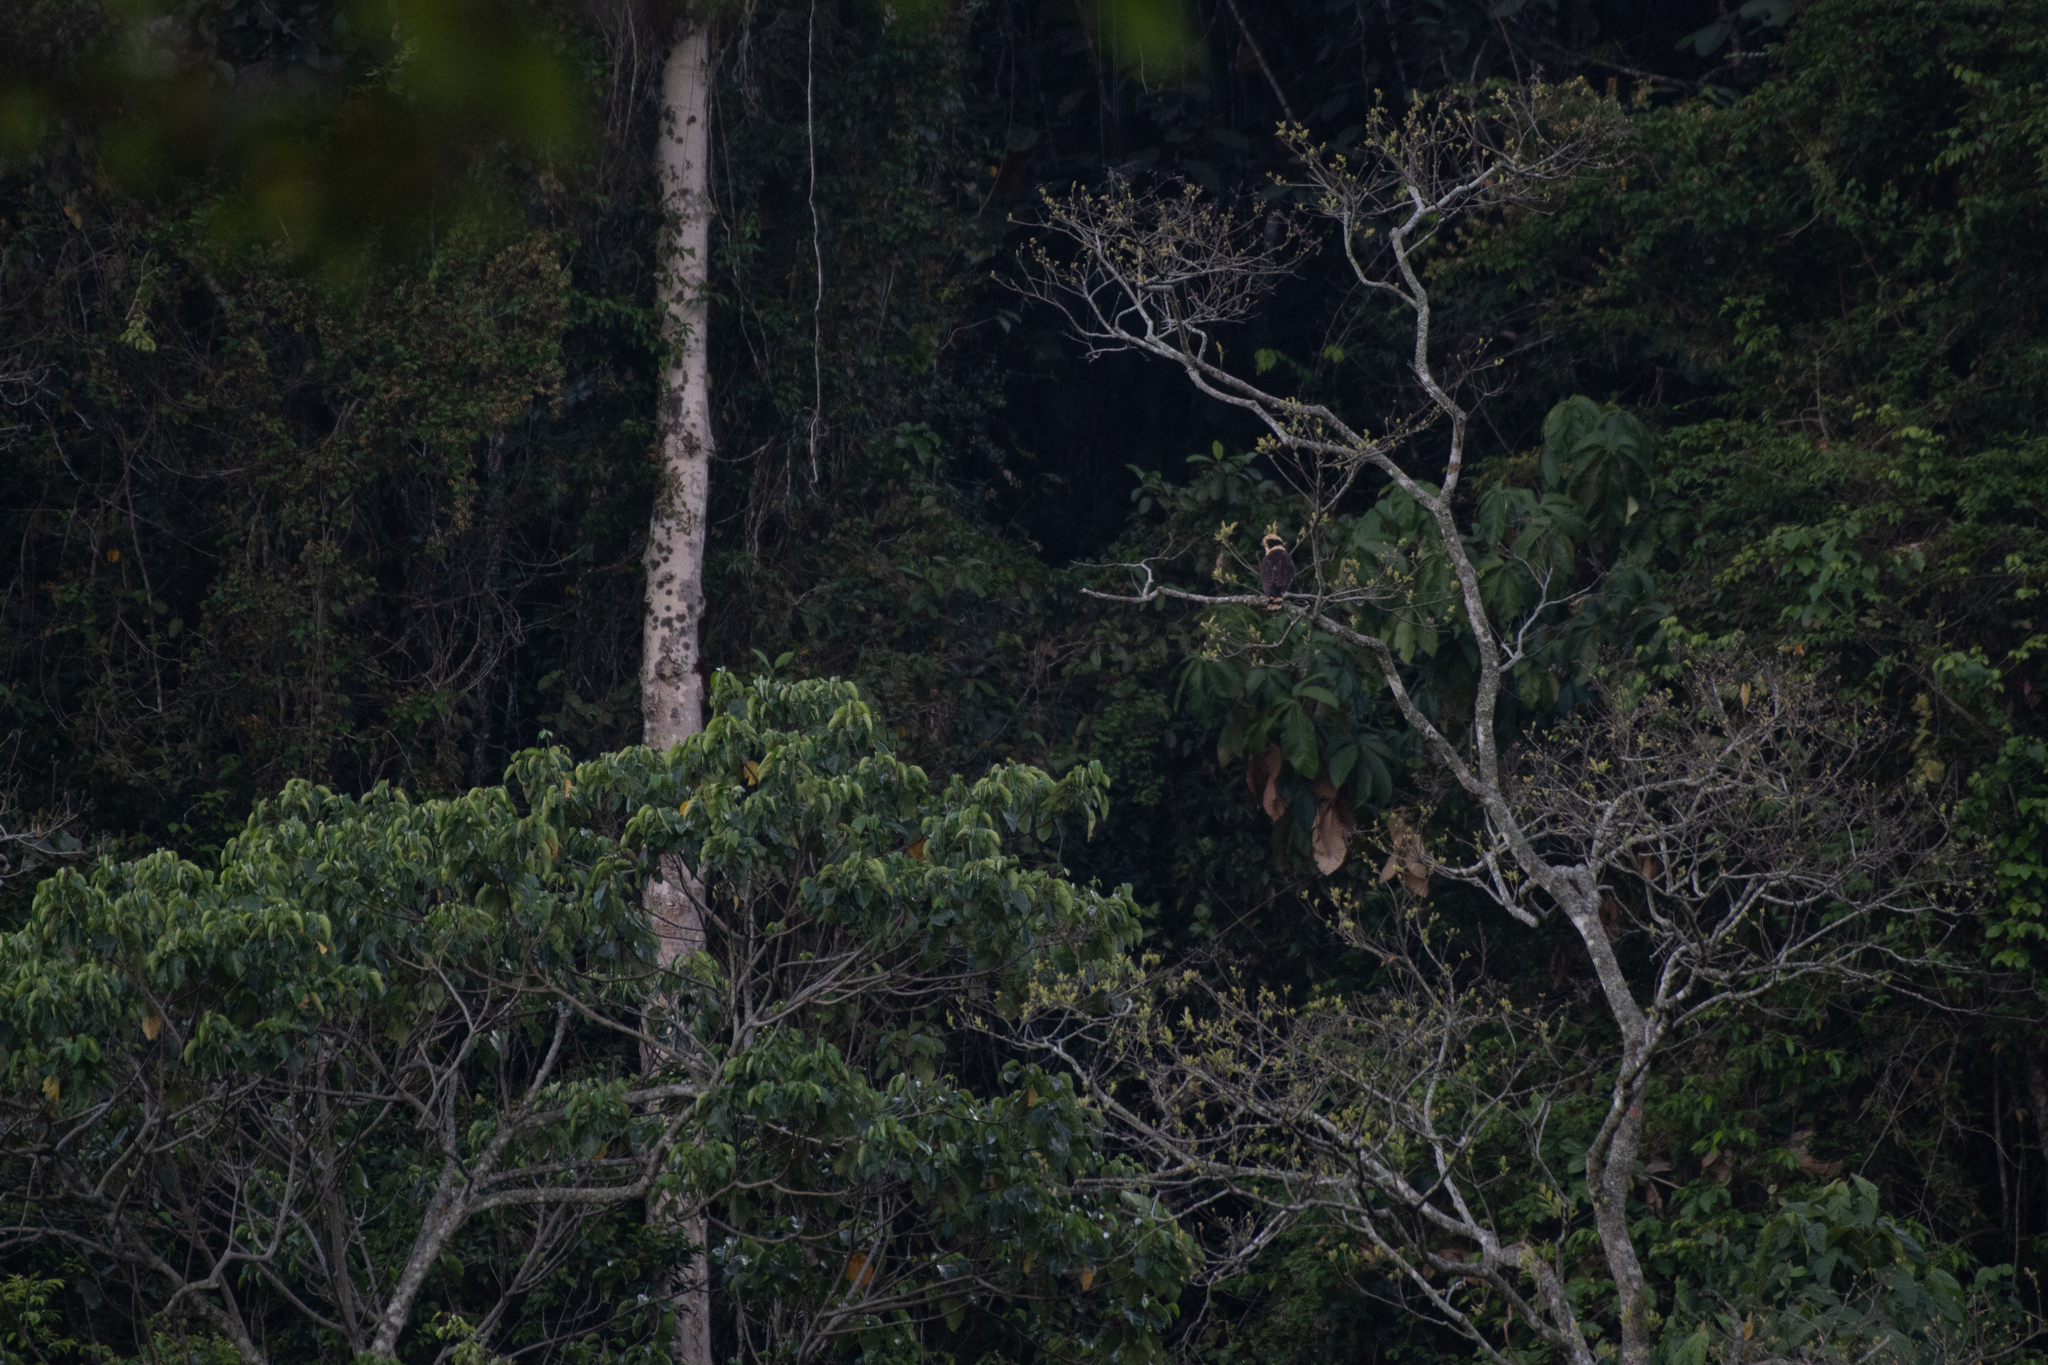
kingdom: Animalia
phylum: Chordata
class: Aves
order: Falconiformes
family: Falconidae
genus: Herpetotheres
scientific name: Herpetotheres cachinnans
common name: Laughing falcon
